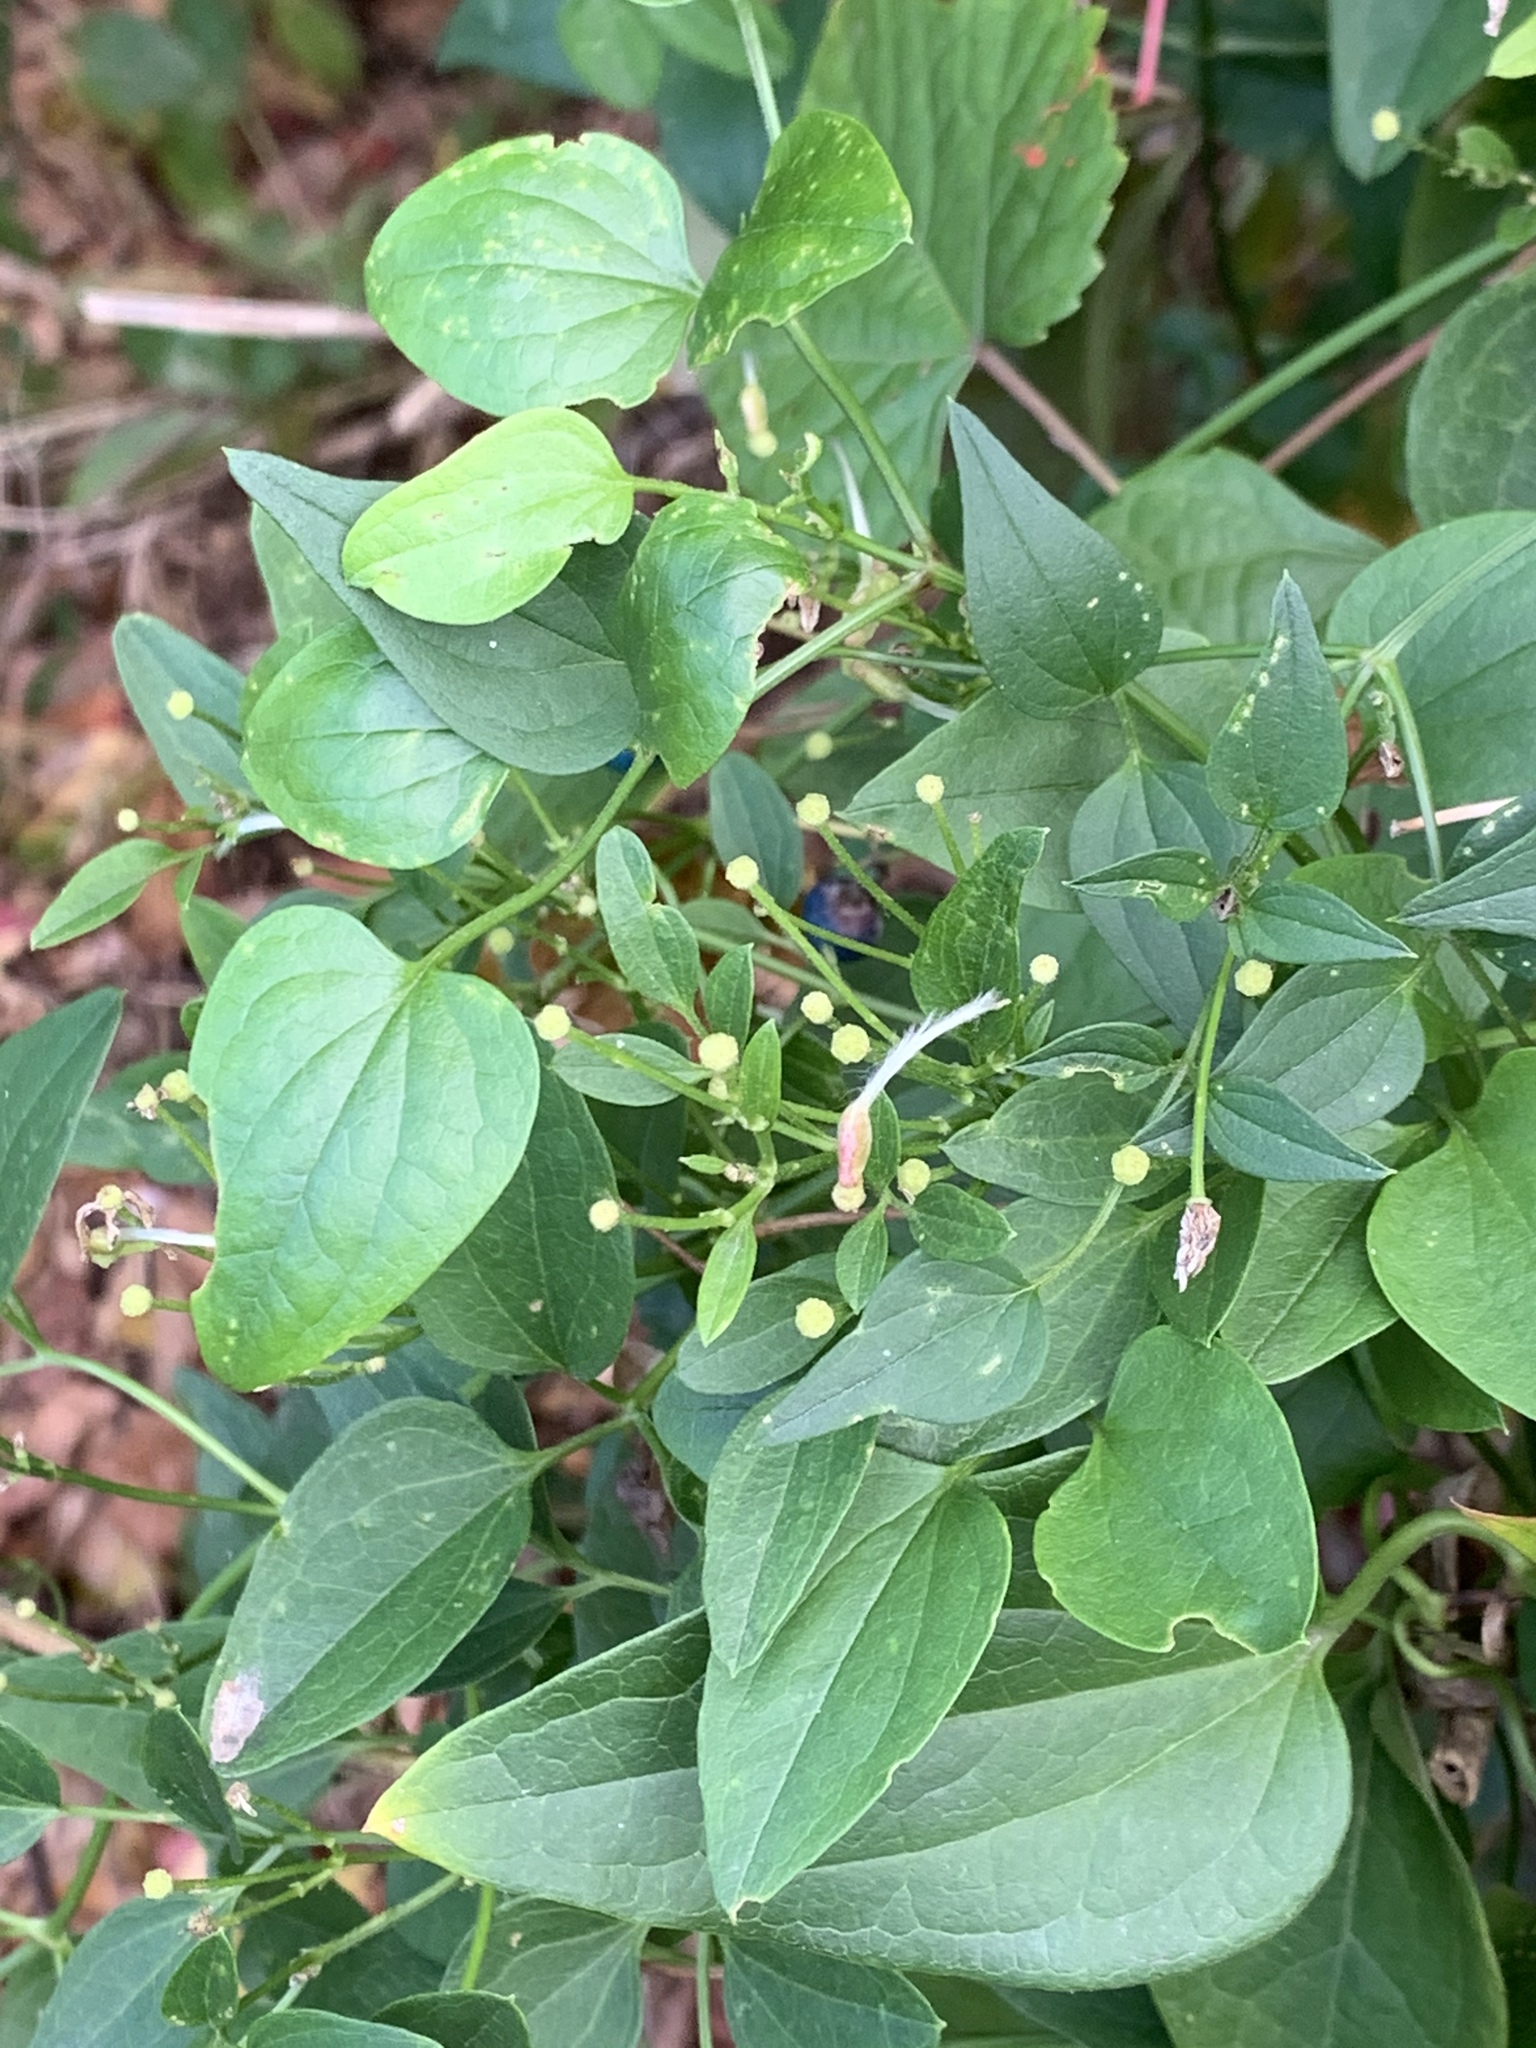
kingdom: Plantae
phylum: Tracheophyta
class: Magnoliopsida
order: Ranunculales
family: Ranunculaceae
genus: Clematis
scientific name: Clematis terniflora
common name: Sweet autumn clematis
